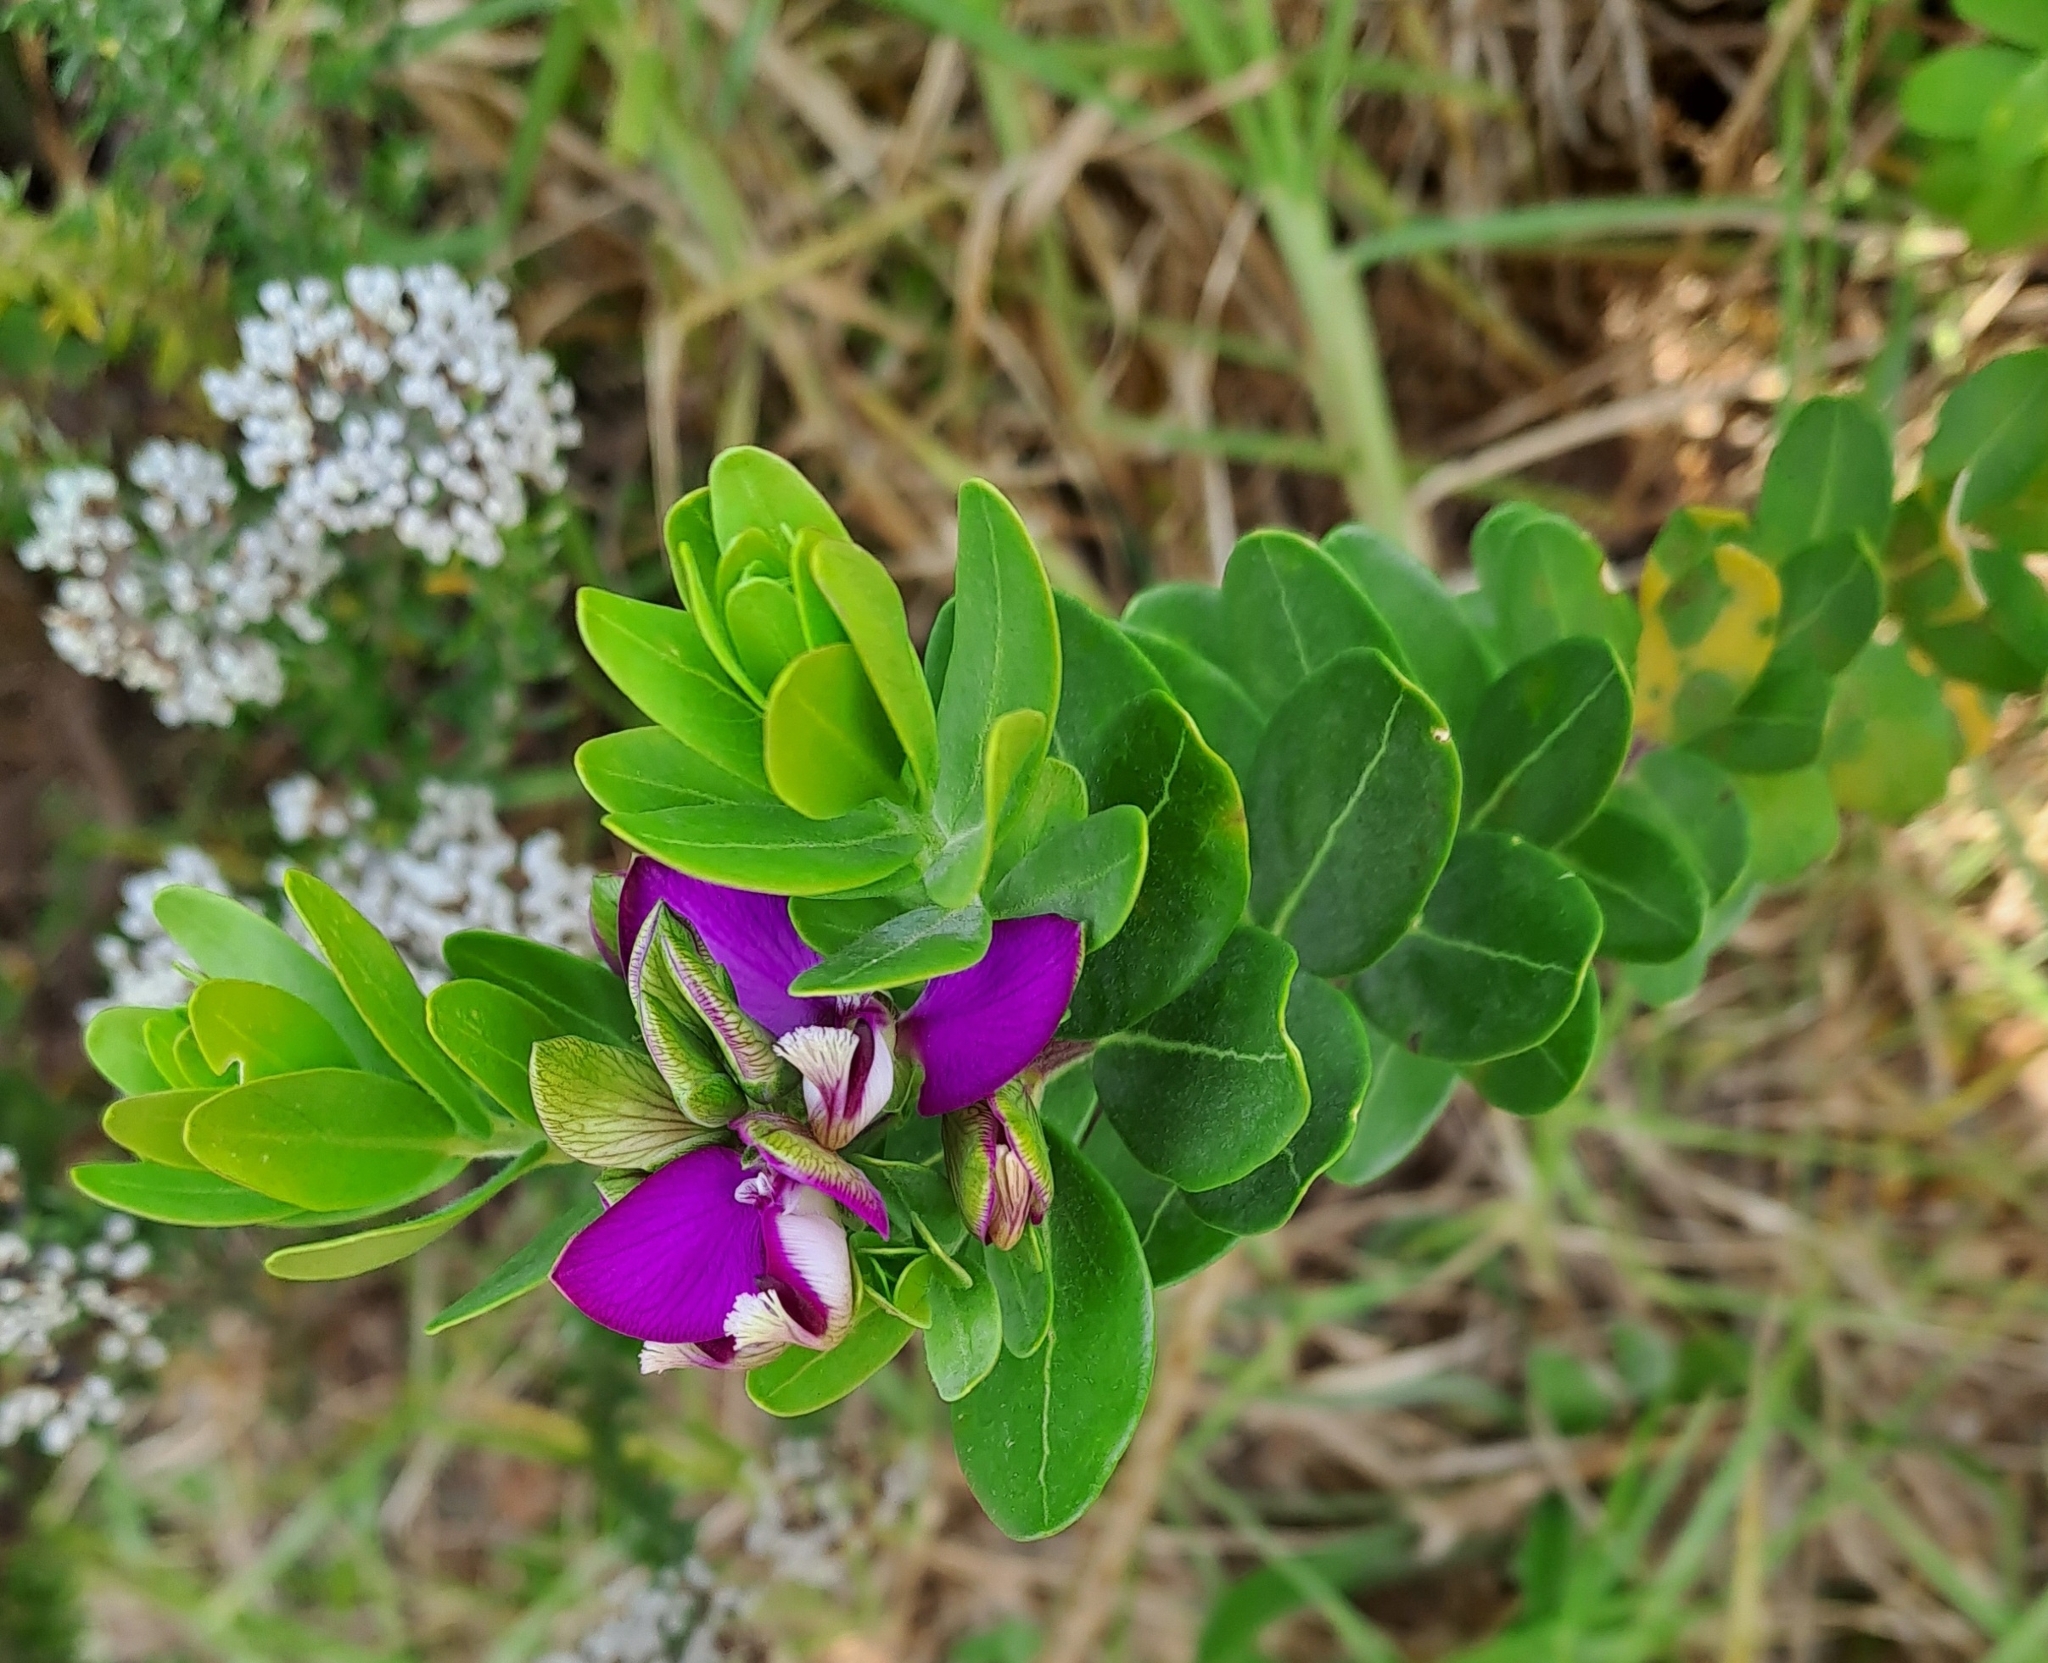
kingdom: Plantae
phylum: Tracheophyta
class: Magnoliopsida
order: Fabales
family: Polygalaceae
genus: Polygala
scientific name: Polygala myrtifolia
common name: Myrtle-leaf milkwort
